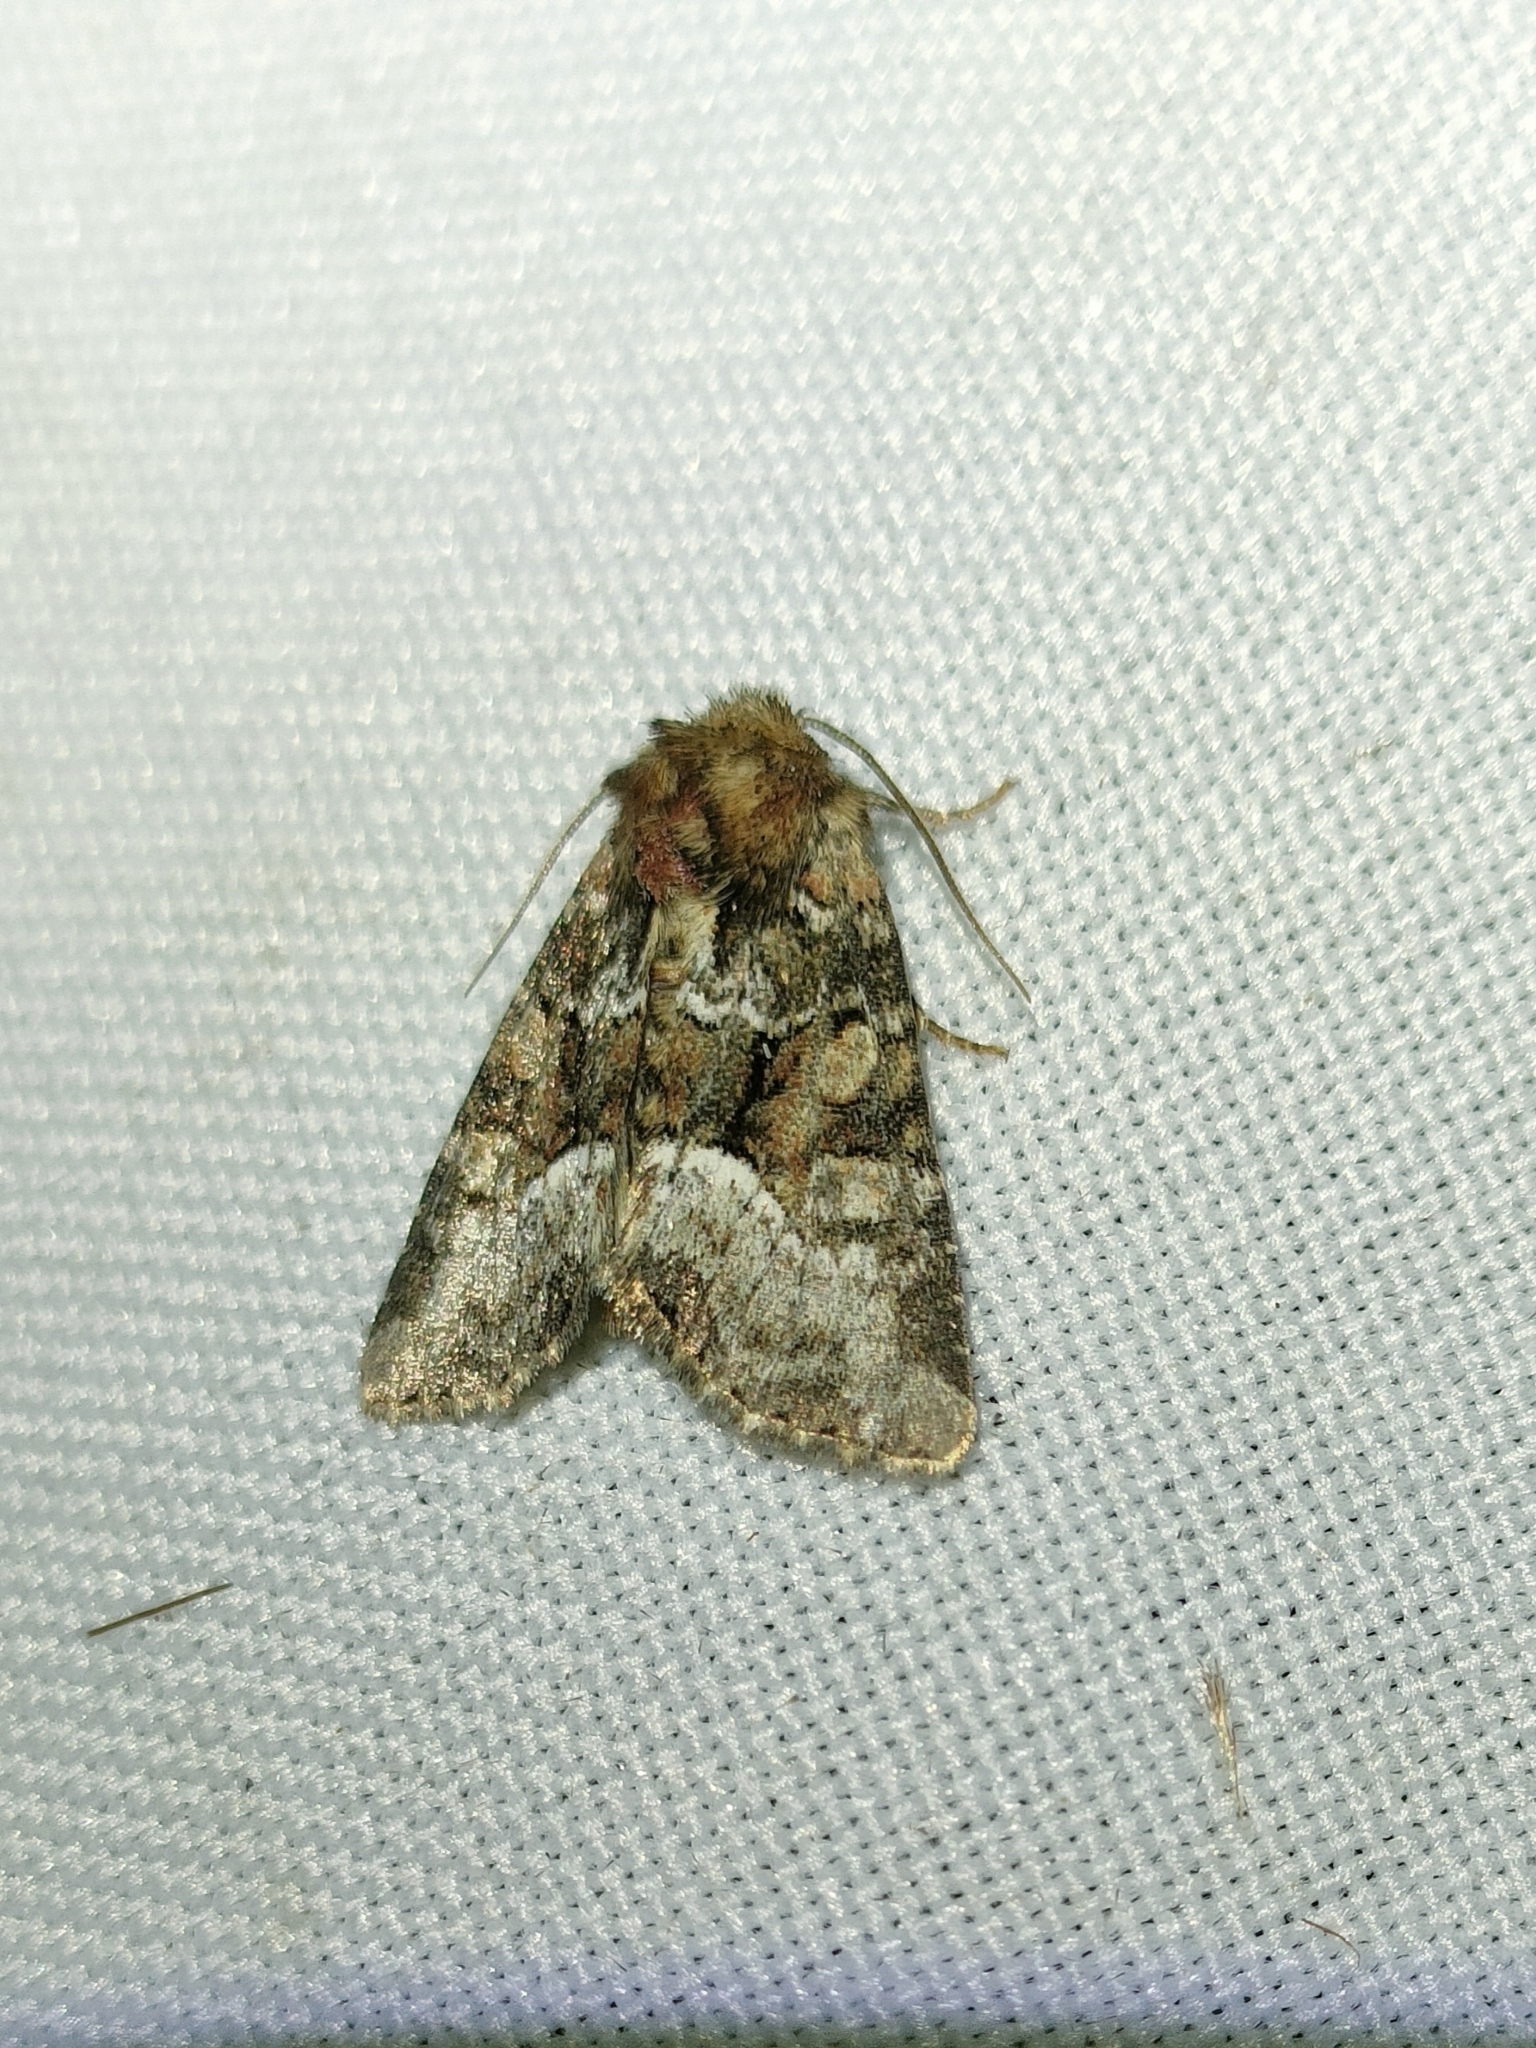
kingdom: Animalia
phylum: Arthropoda
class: Insecta
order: Lepidoptera
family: Noctuidae
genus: Oligia
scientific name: Oligia strigilis
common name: Marbled minor
